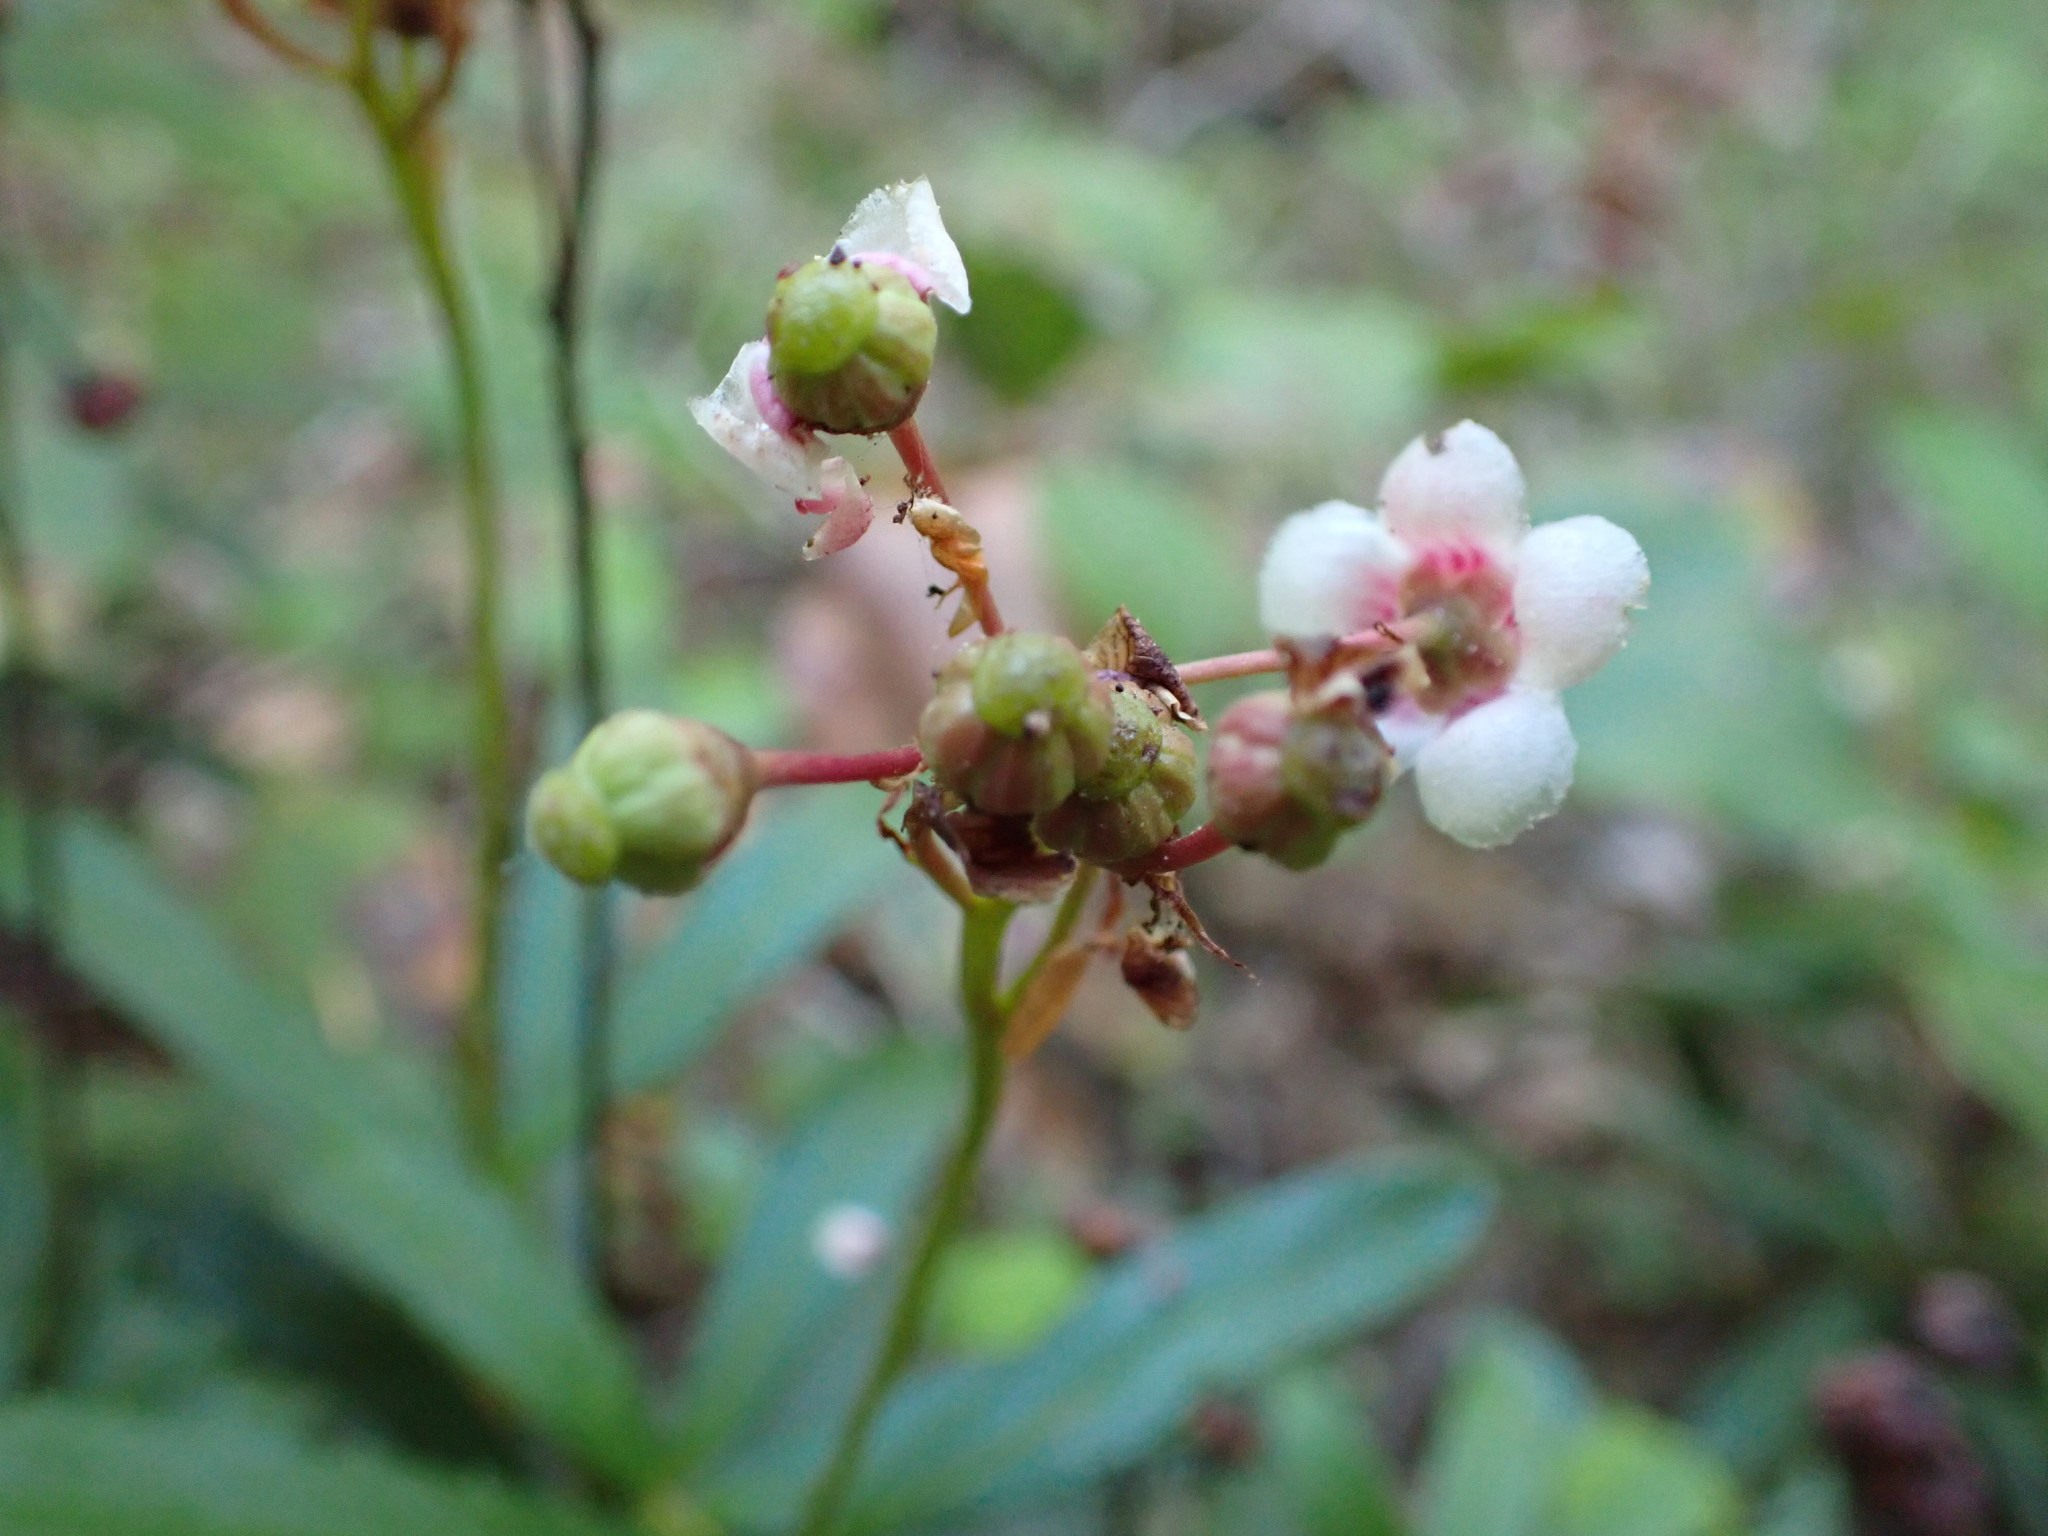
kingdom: Plantae
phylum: Tracheophyta
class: Magnoliopsida
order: Ericales
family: Ericaceae
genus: Chimaphila
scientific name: Chimaphila umbellata
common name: Pipsissewa
